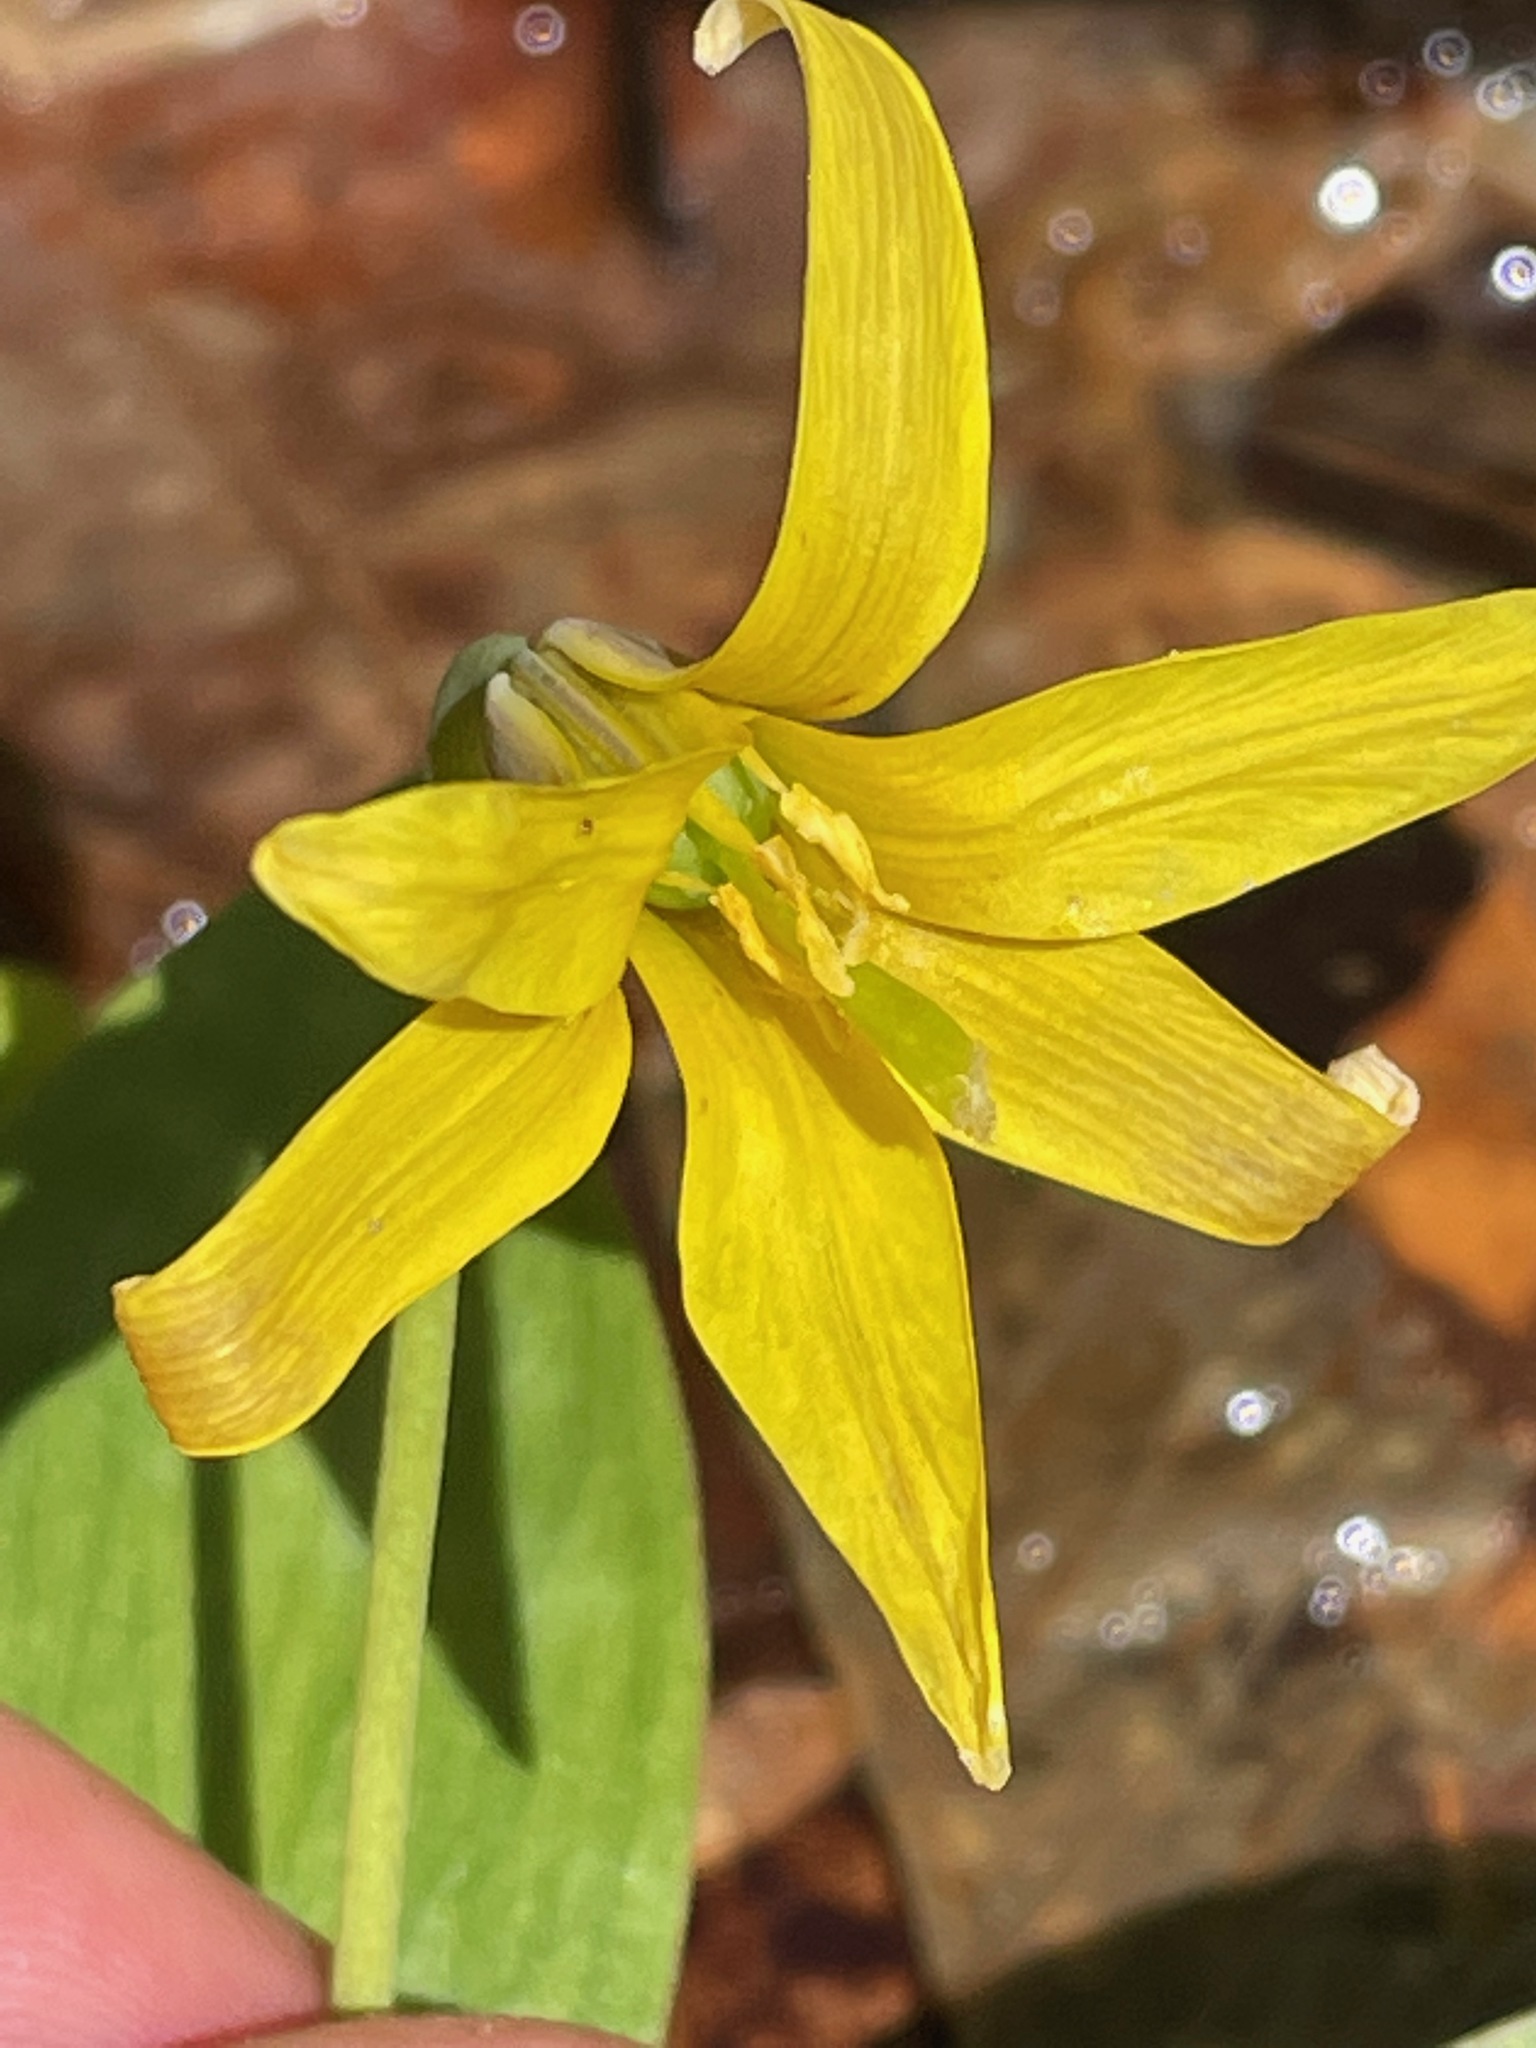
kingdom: Plantae
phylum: Tracheophyta
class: Liliopsida
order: Liliales
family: Liliaceae
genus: Erythronium
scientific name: Erythronium americanum
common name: Yellow adder's-tongue
